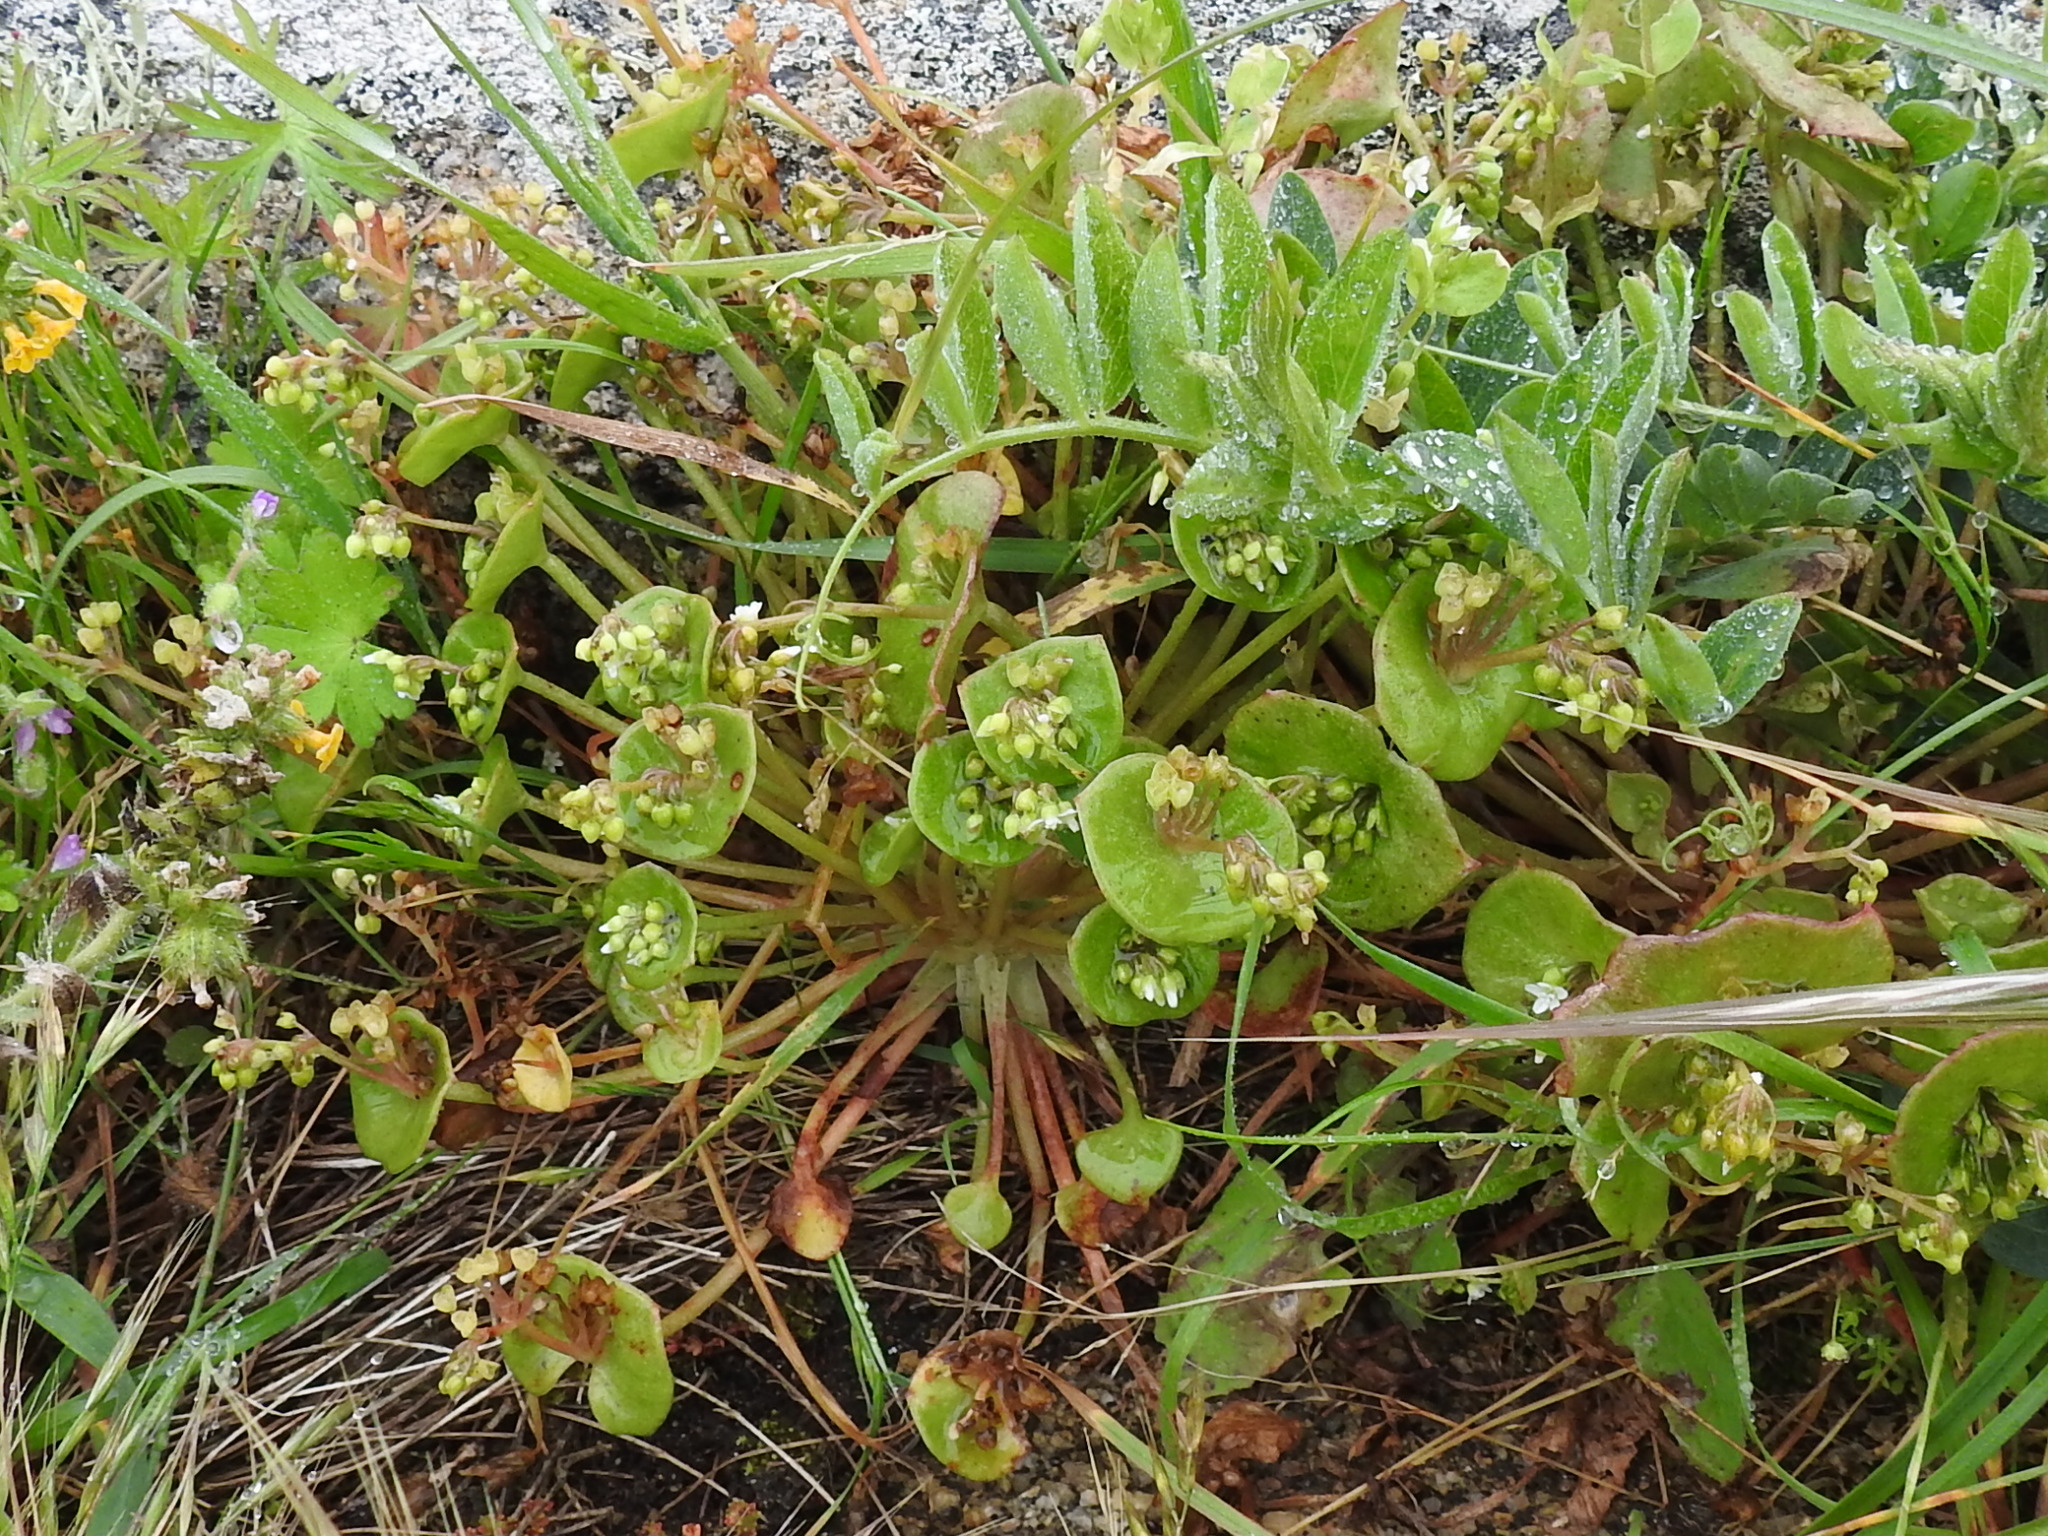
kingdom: Plantae
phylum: Tracheophyta
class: Magnoliopsida
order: Caryophyllales
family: Montiaceae
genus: Claytonia
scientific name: Claytonia perfoliata
